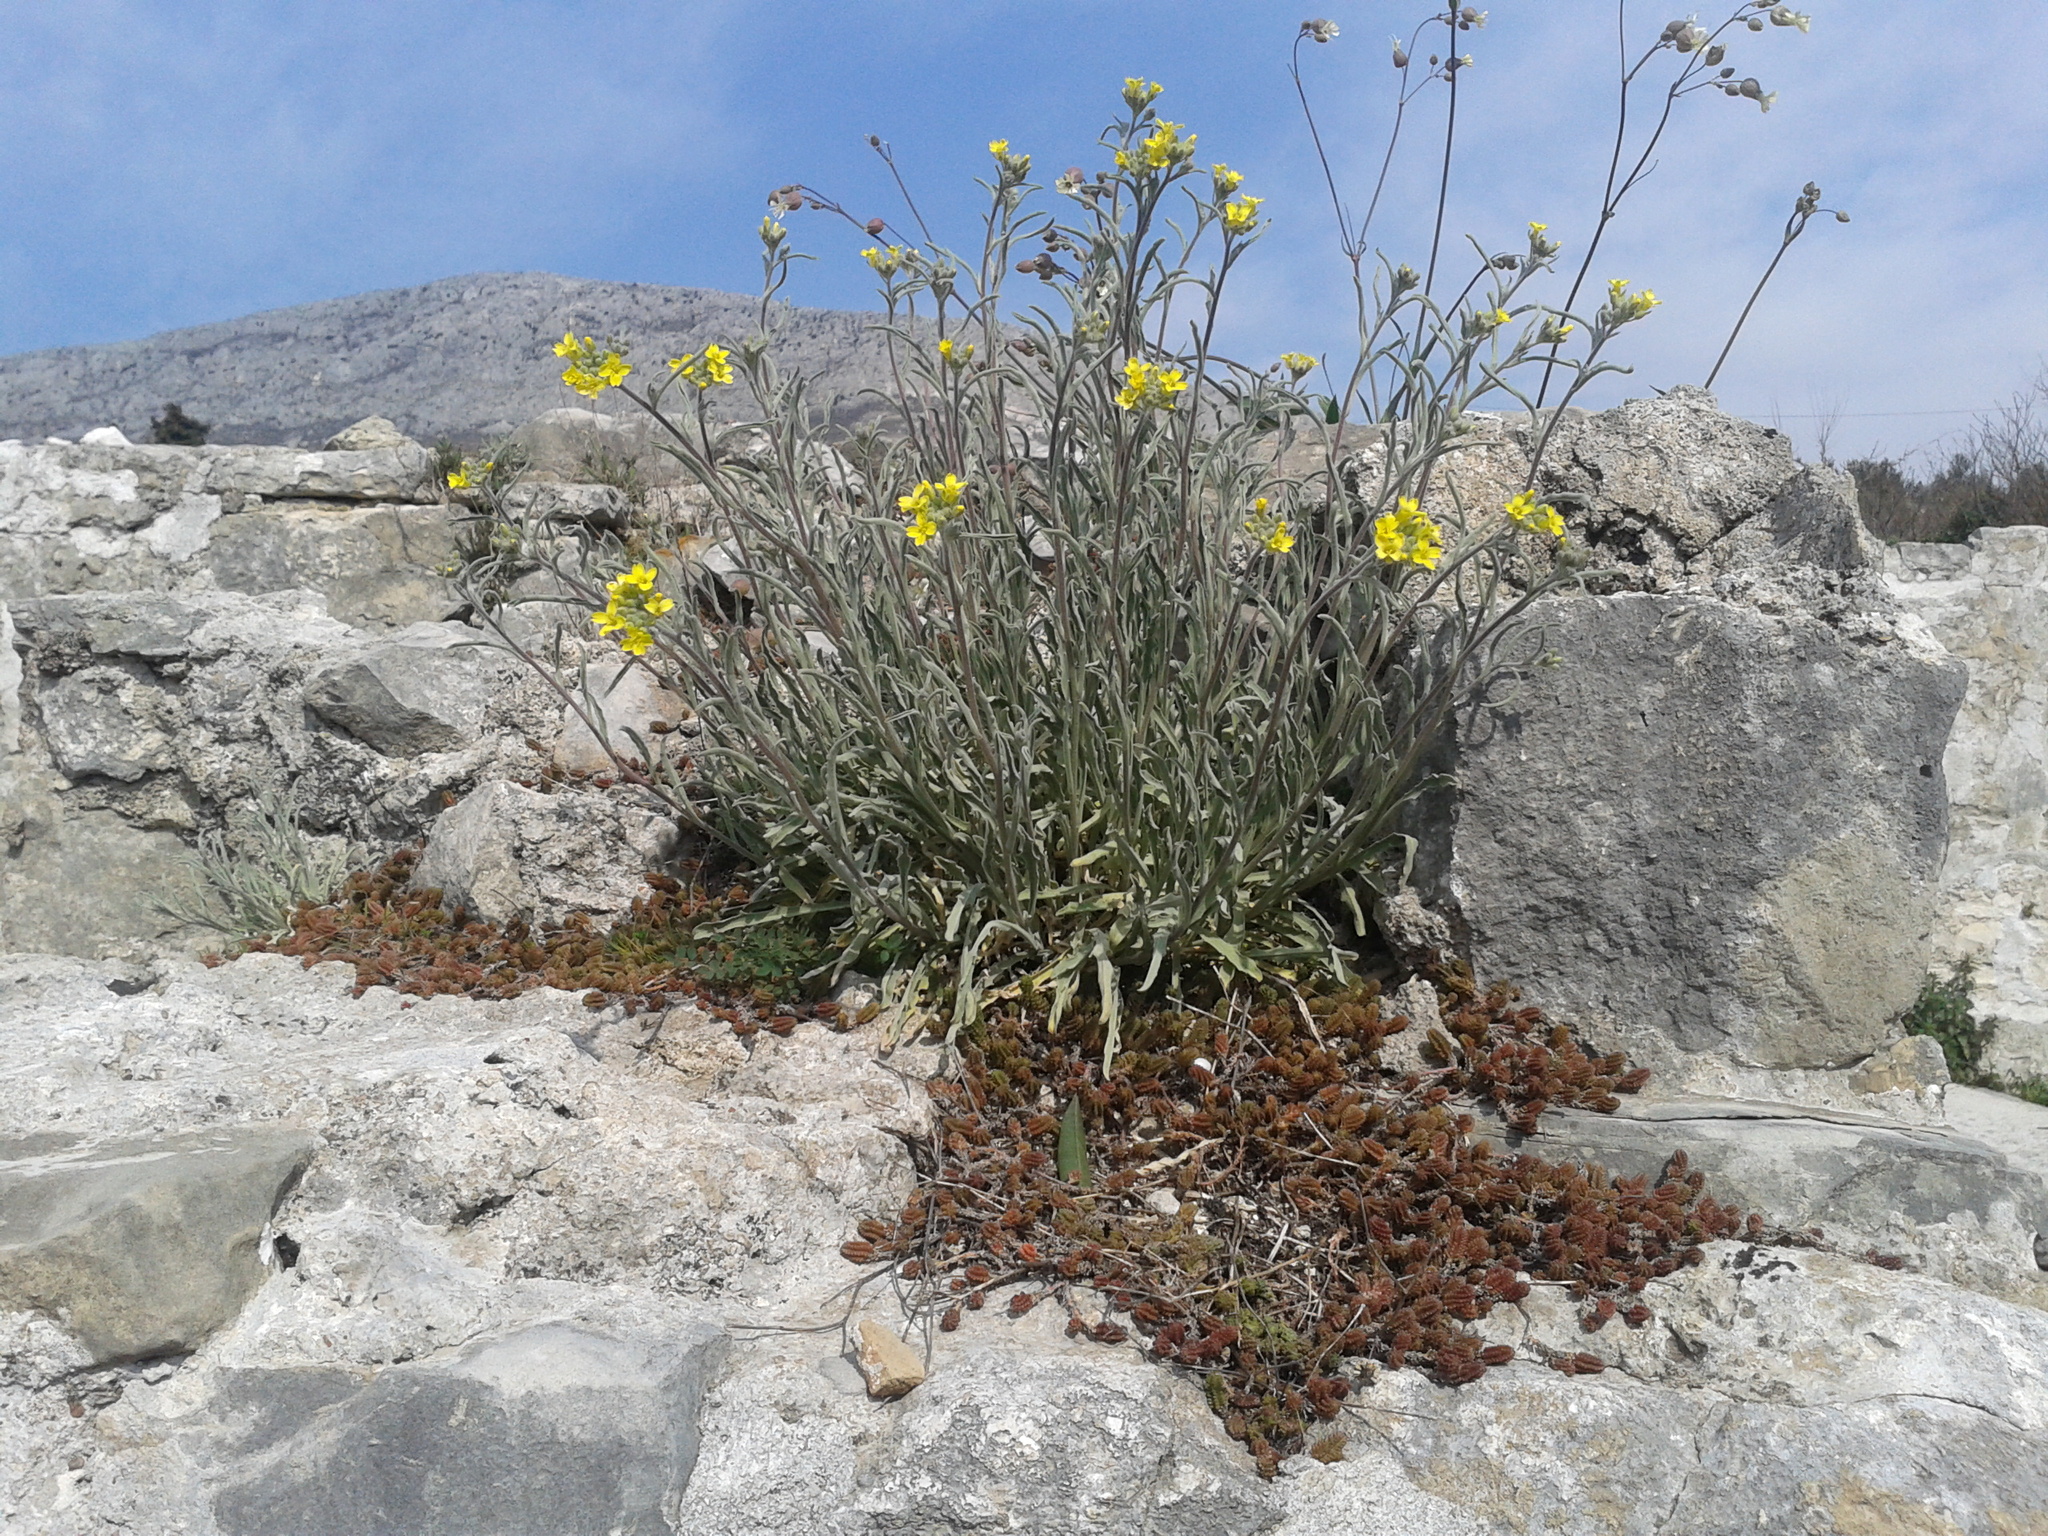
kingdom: Plantae
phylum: Tracheophyta
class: Magnoliopsida
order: Brassicales
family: Brassicaceae
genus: Aurinia
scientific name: Aurinia sinuata
